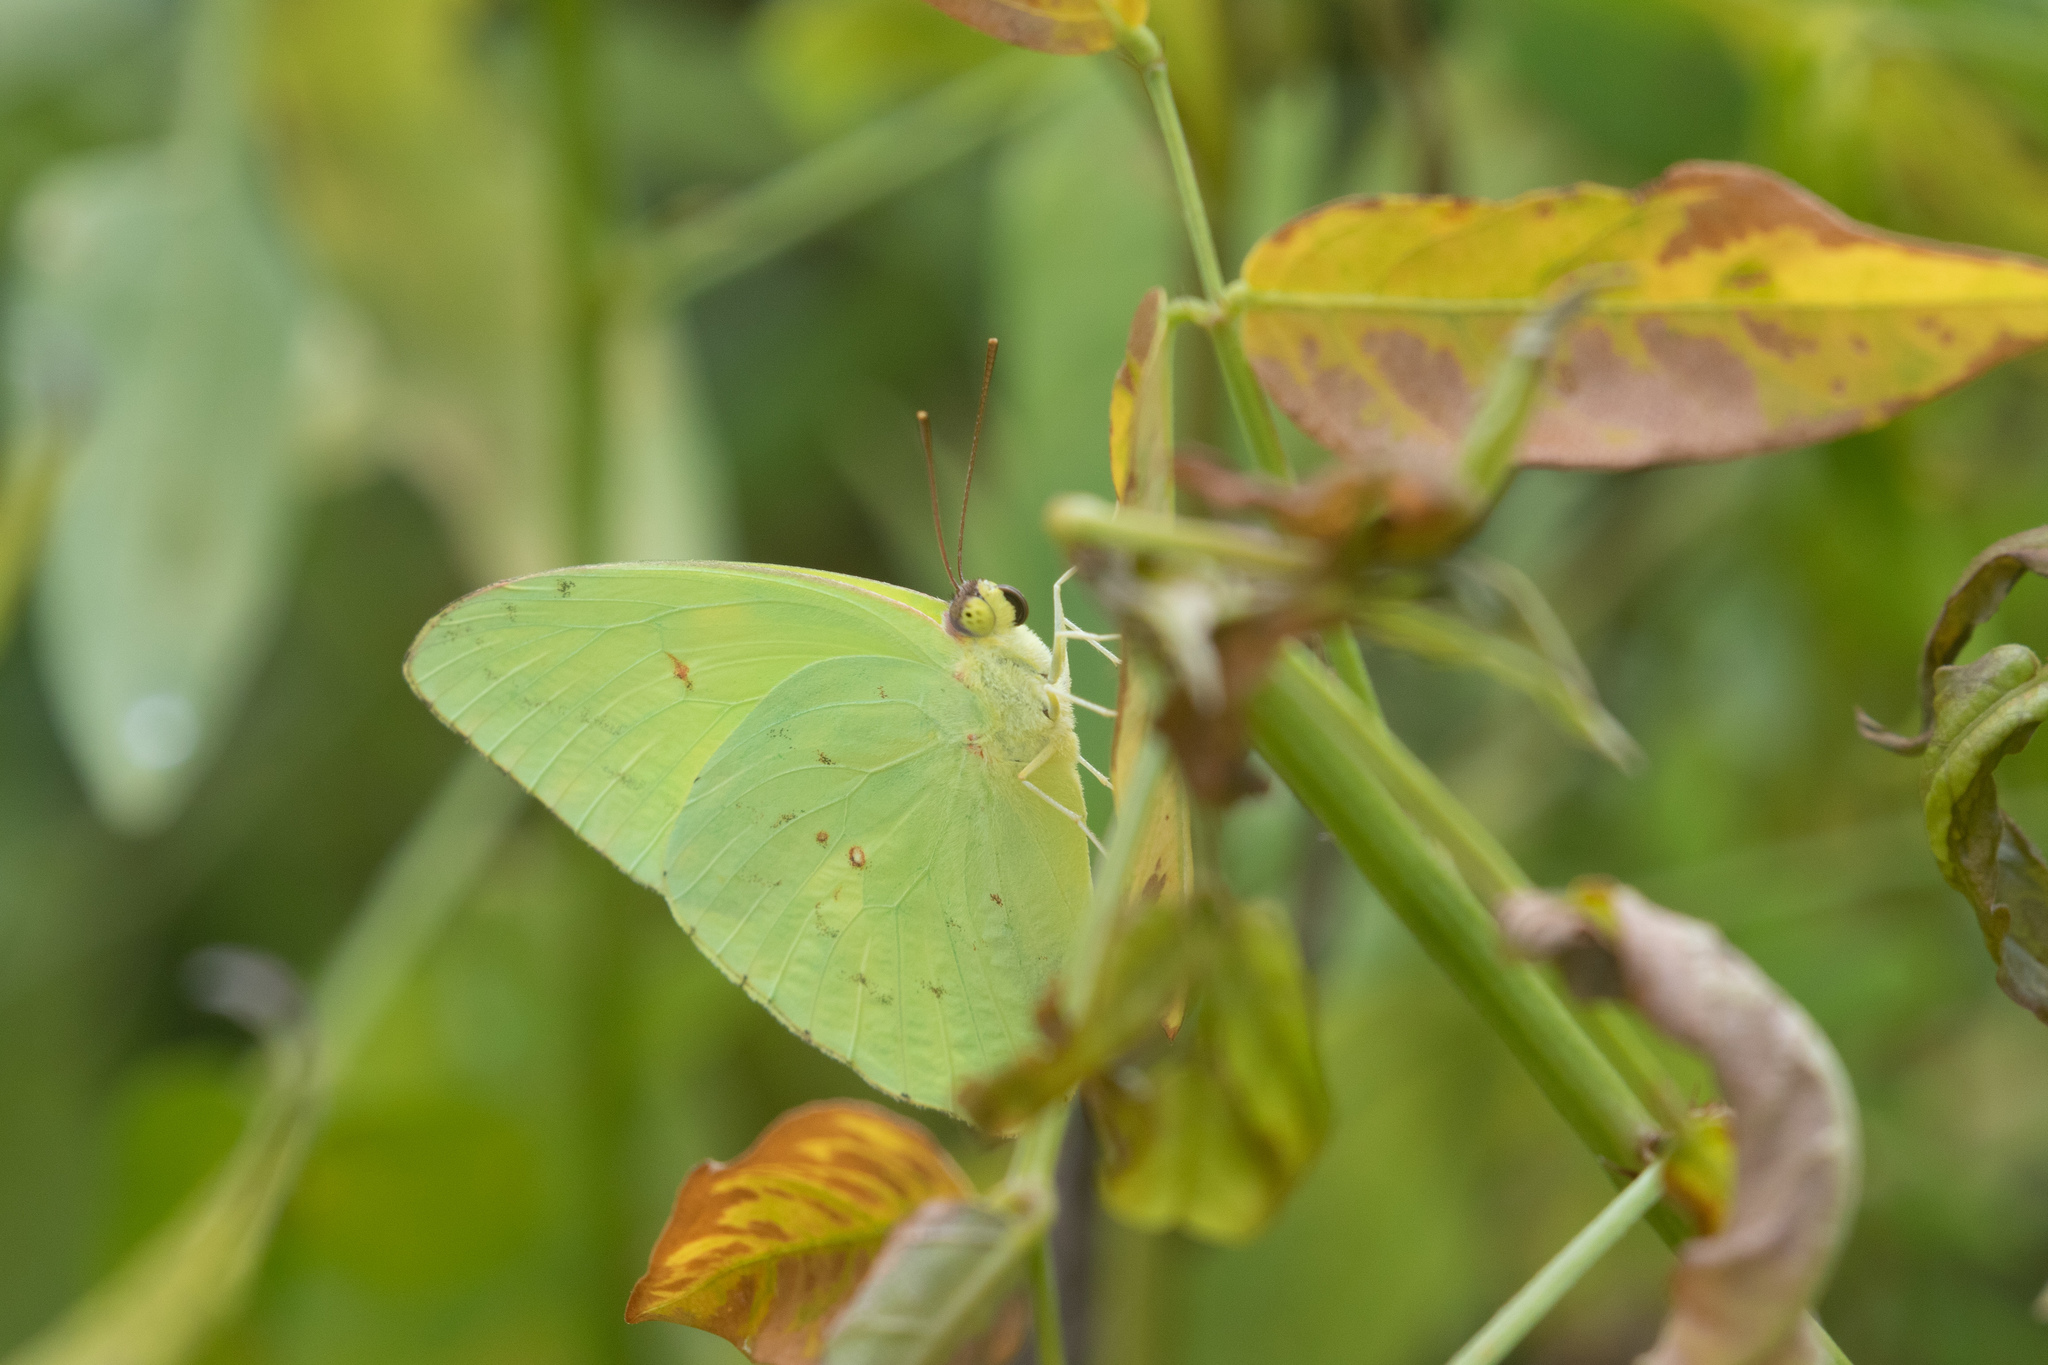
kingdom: Animalia
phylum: Arthropoda
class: Insecta
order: Lepidoptera
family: Pieridae
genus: Phoebis
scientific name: Phoebis sennae
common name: Cloudless sulphur
